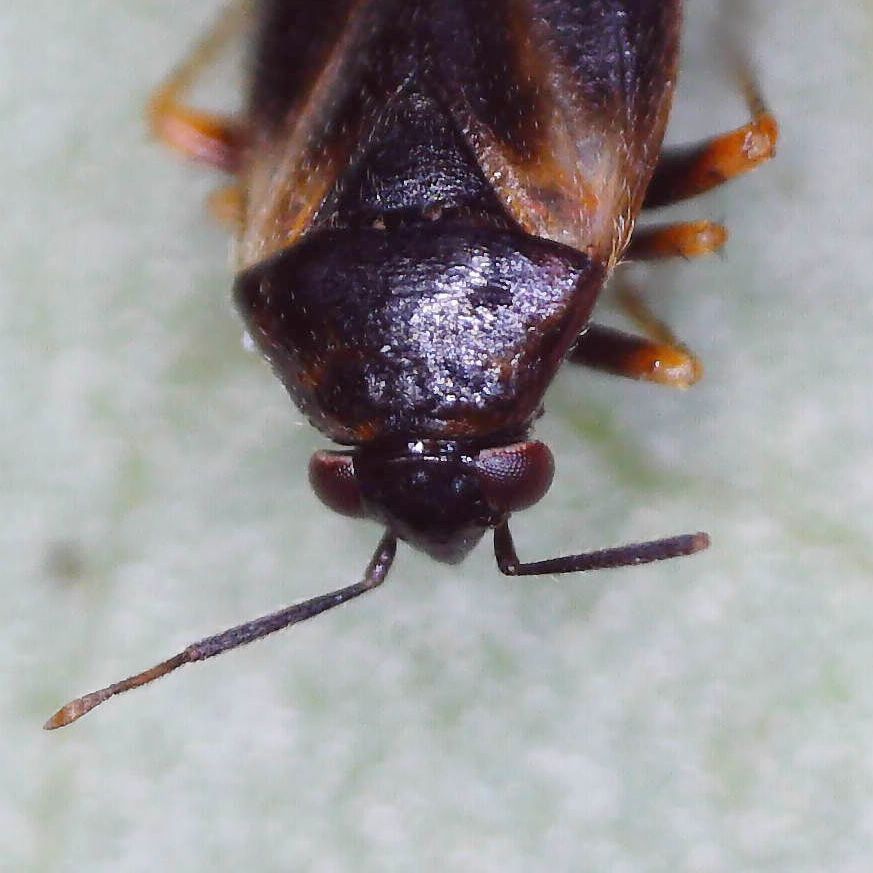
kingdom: Animalia
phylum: Arthropoda
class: Insecta
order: Hemiptera
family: Miridae
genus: Salicarus
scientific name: Salicarus roseri
